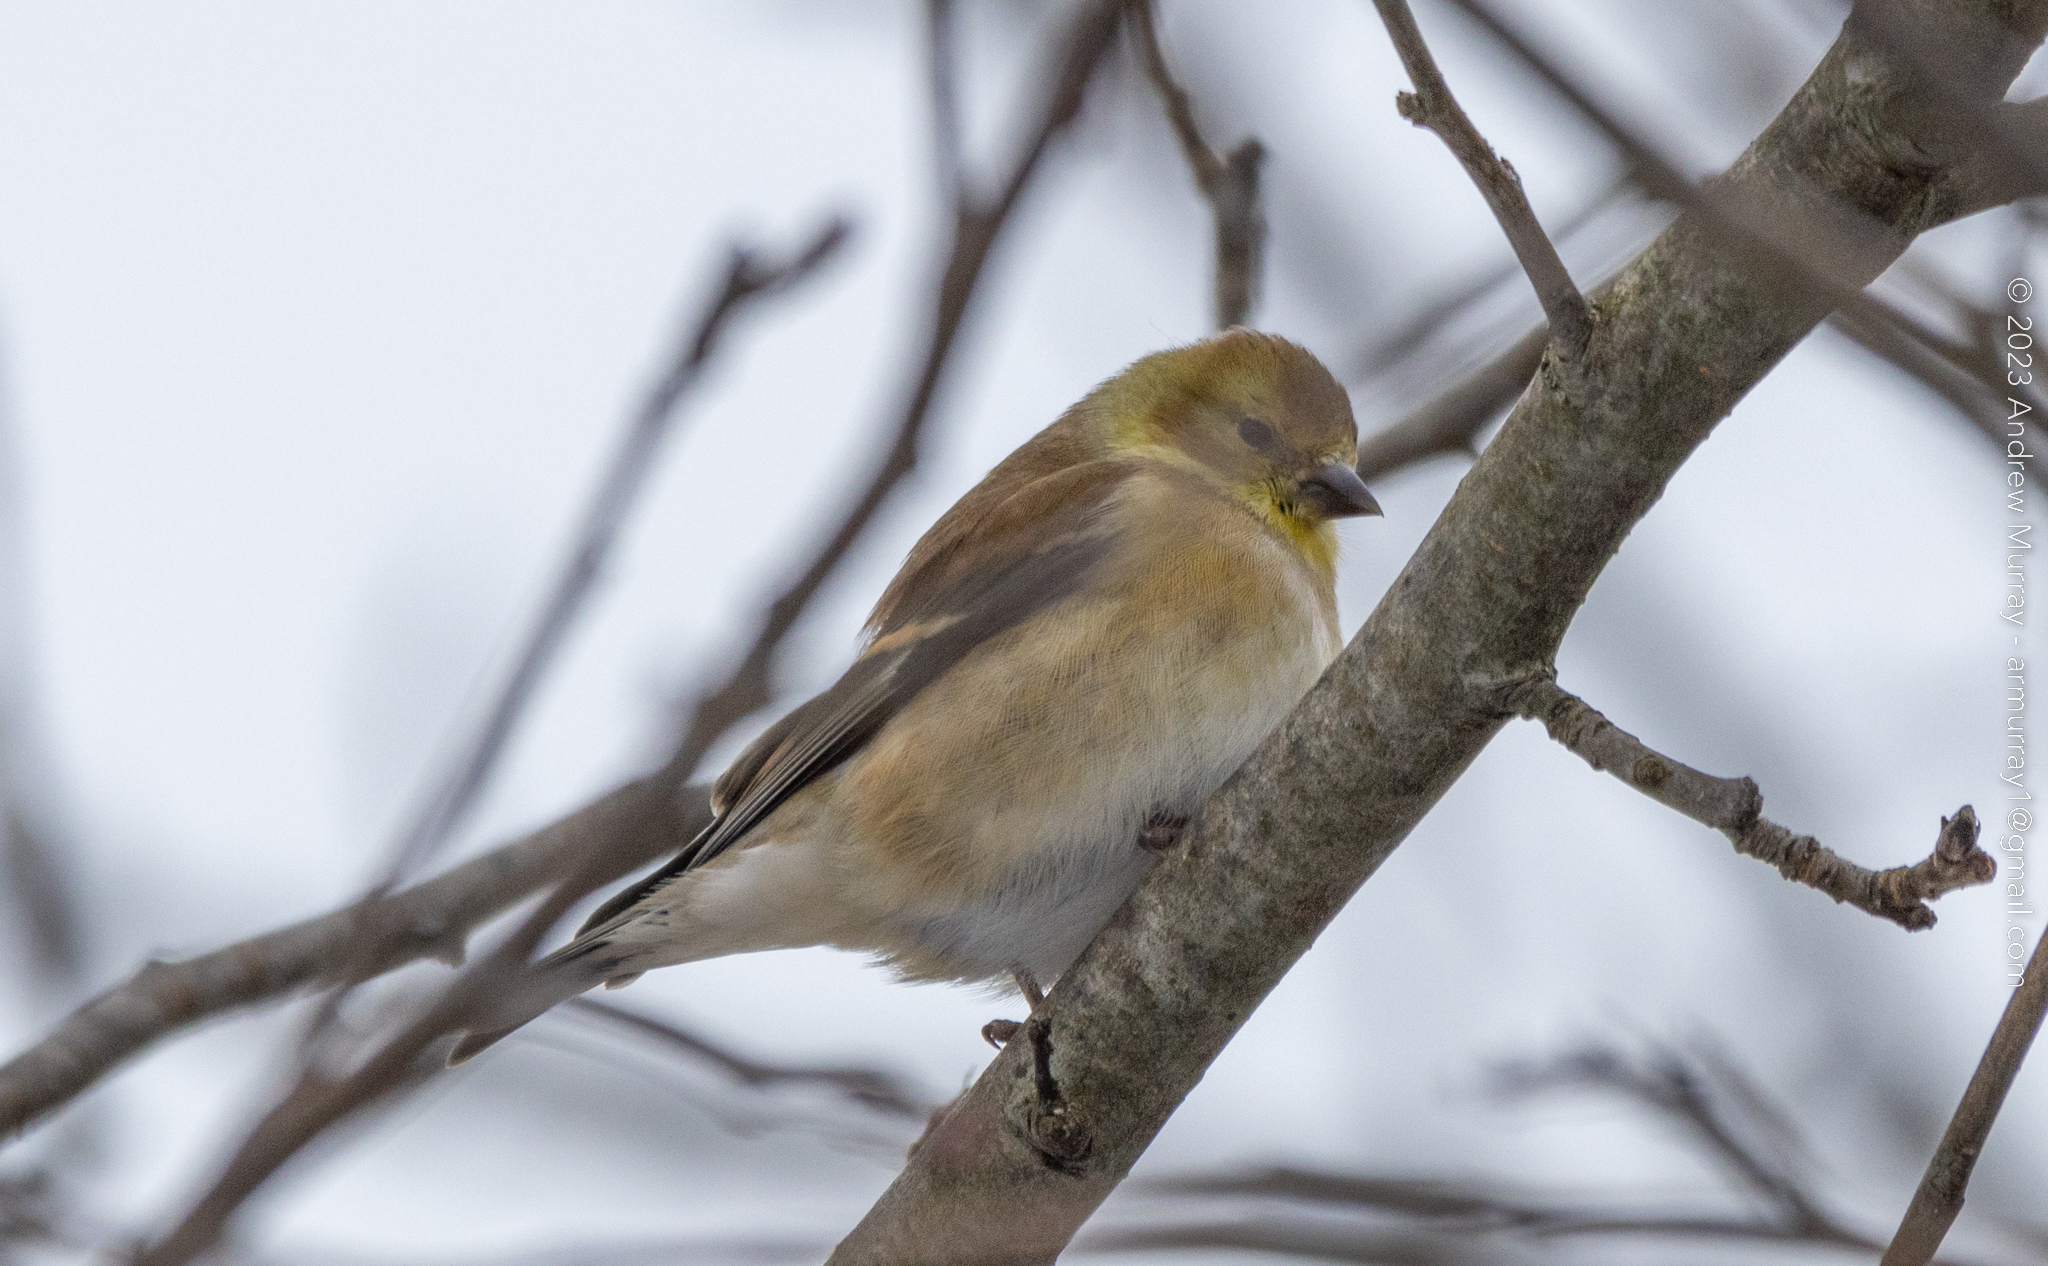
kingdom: Animalia
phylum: Chordata
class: Aves
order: Passeriformes
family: Fringillidae
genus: Spinus
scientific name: Spinus tristis
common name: American goldfinch
